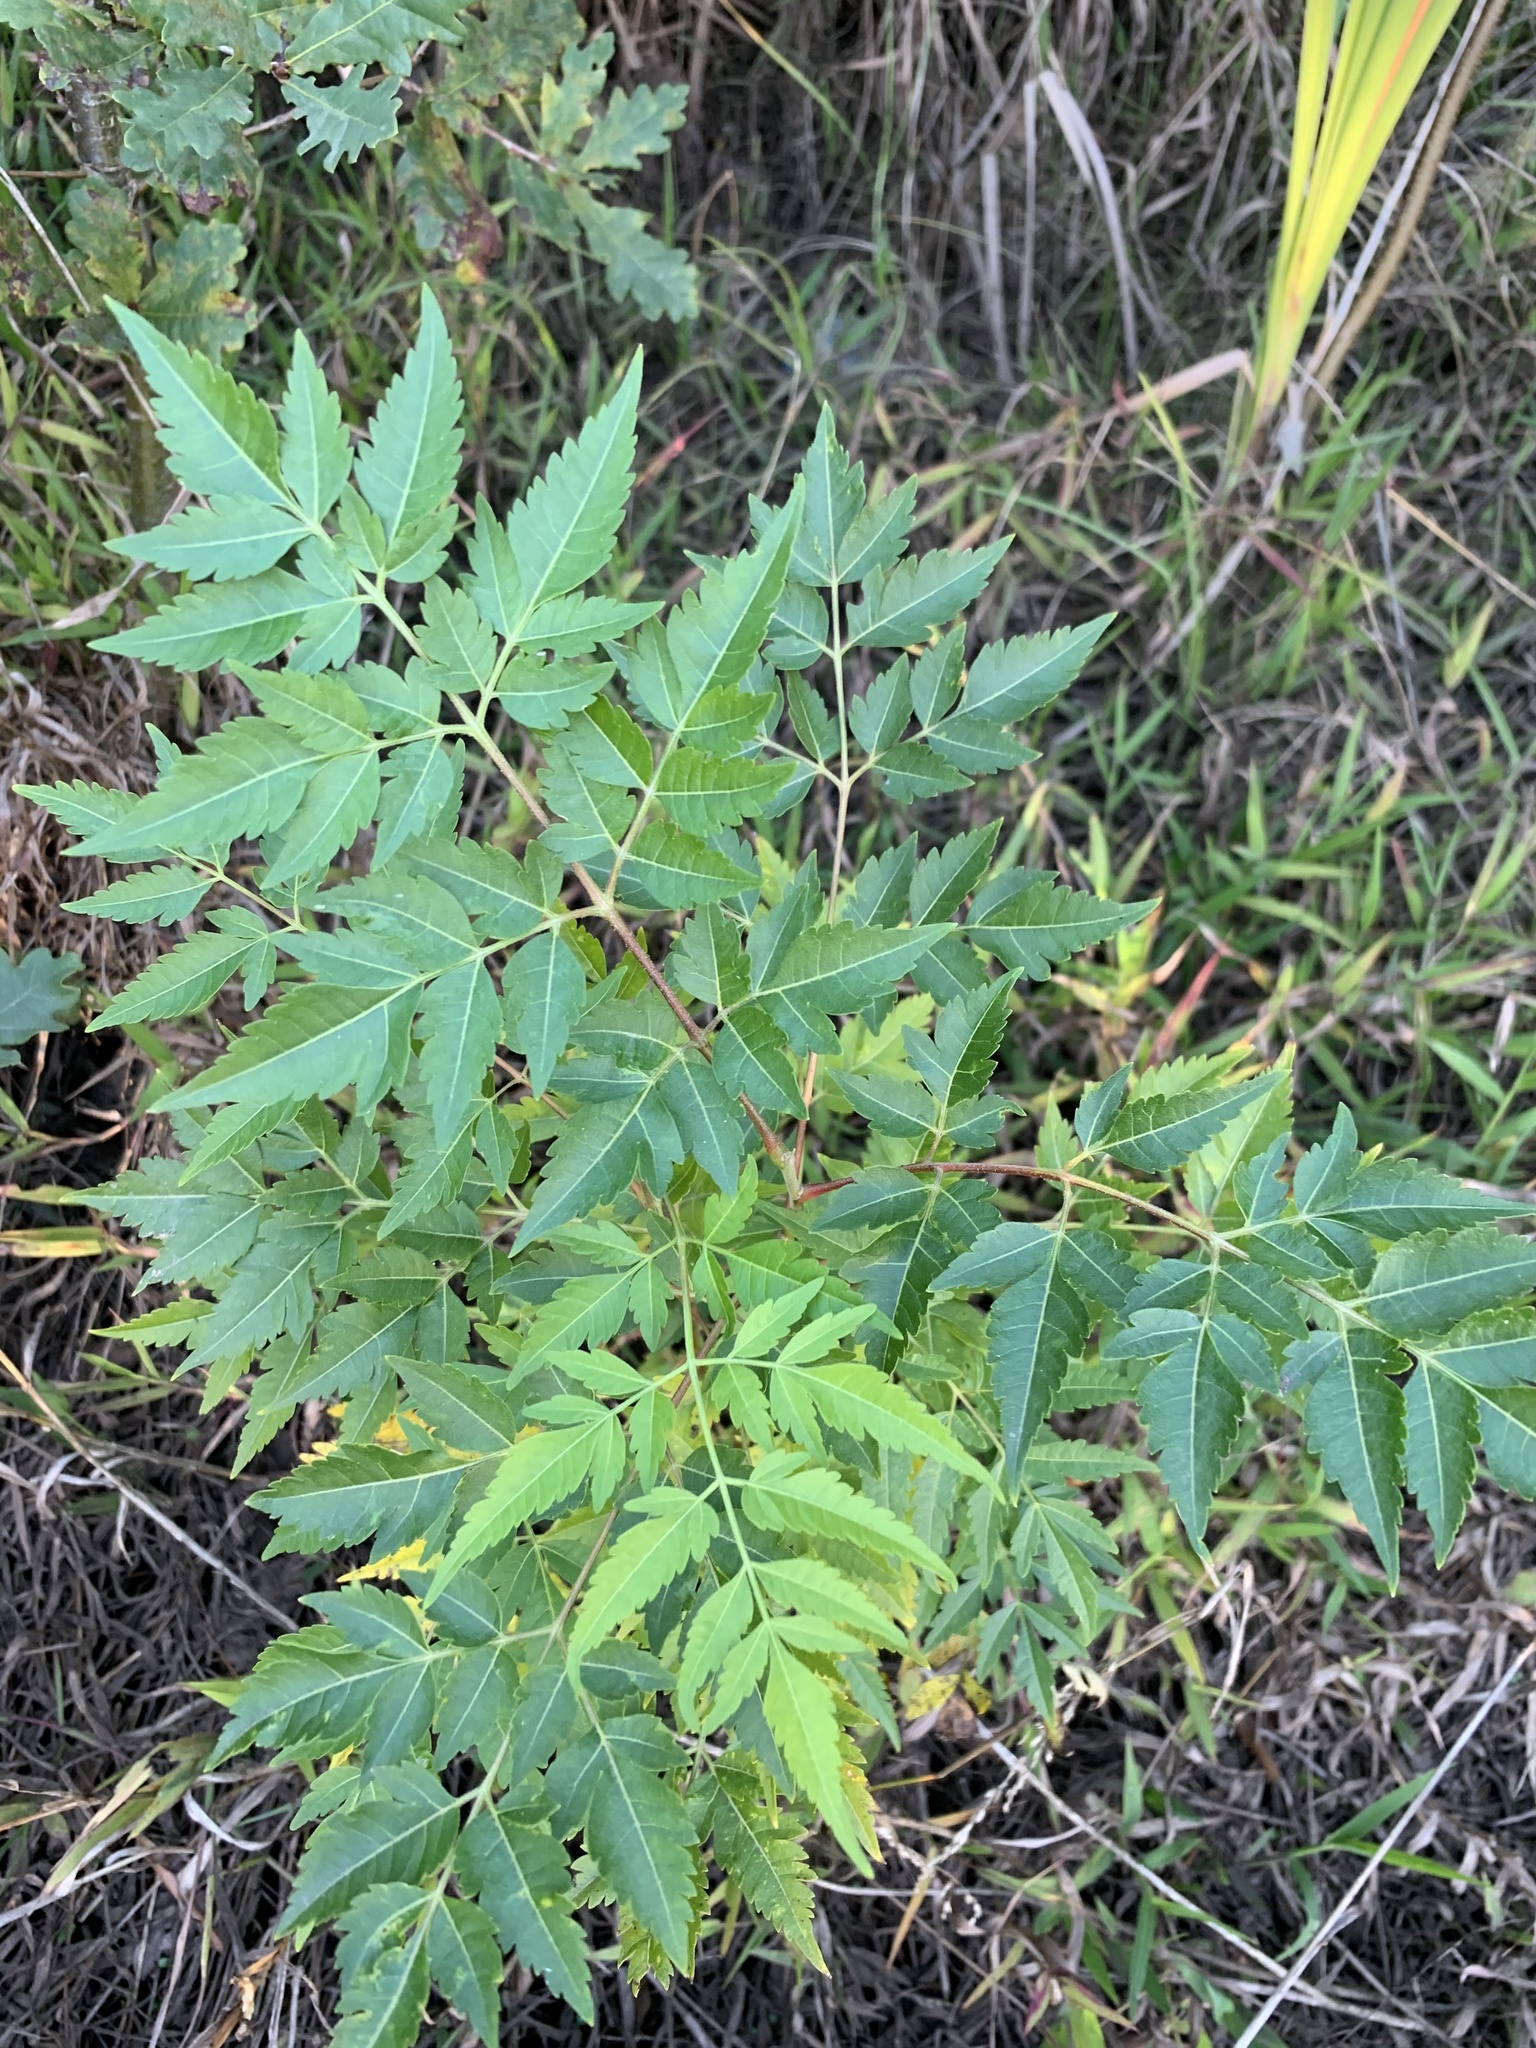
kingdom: Plantae
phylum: Tracheophyta
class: Magnoliopsida
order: Sapindales
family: Meliaceae
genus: Melia
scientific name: Melia azedarach
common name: Chinaberrytree
